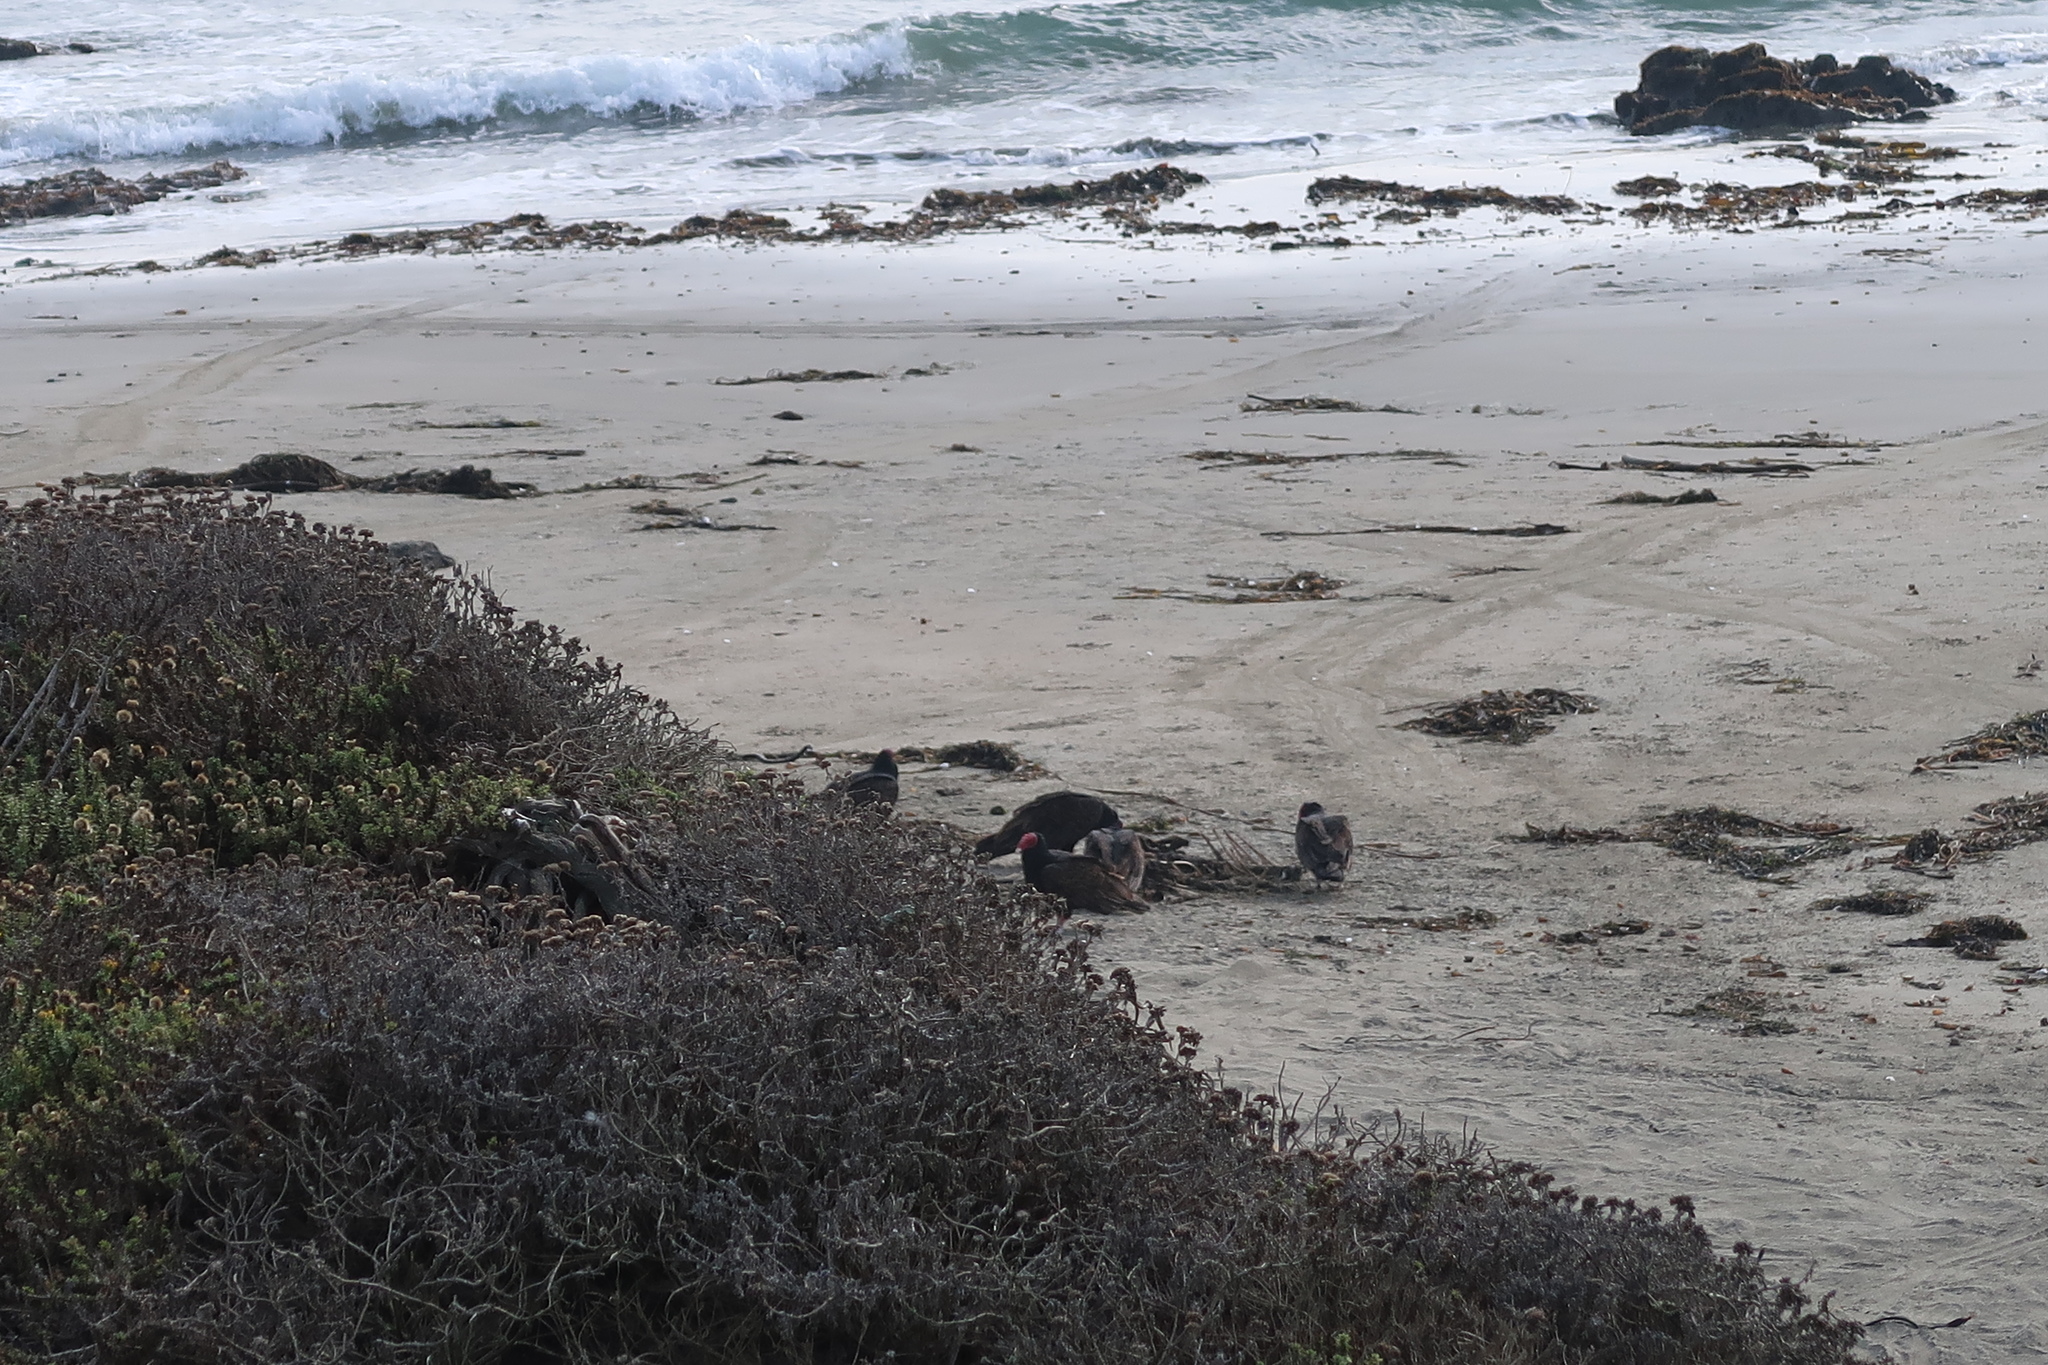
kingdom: Animalia
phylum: Chordata
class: Aves
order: Accipitriformes
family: Cathartidae
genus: Cathartes
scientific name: Cathartes aura
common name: Turkey vulture
